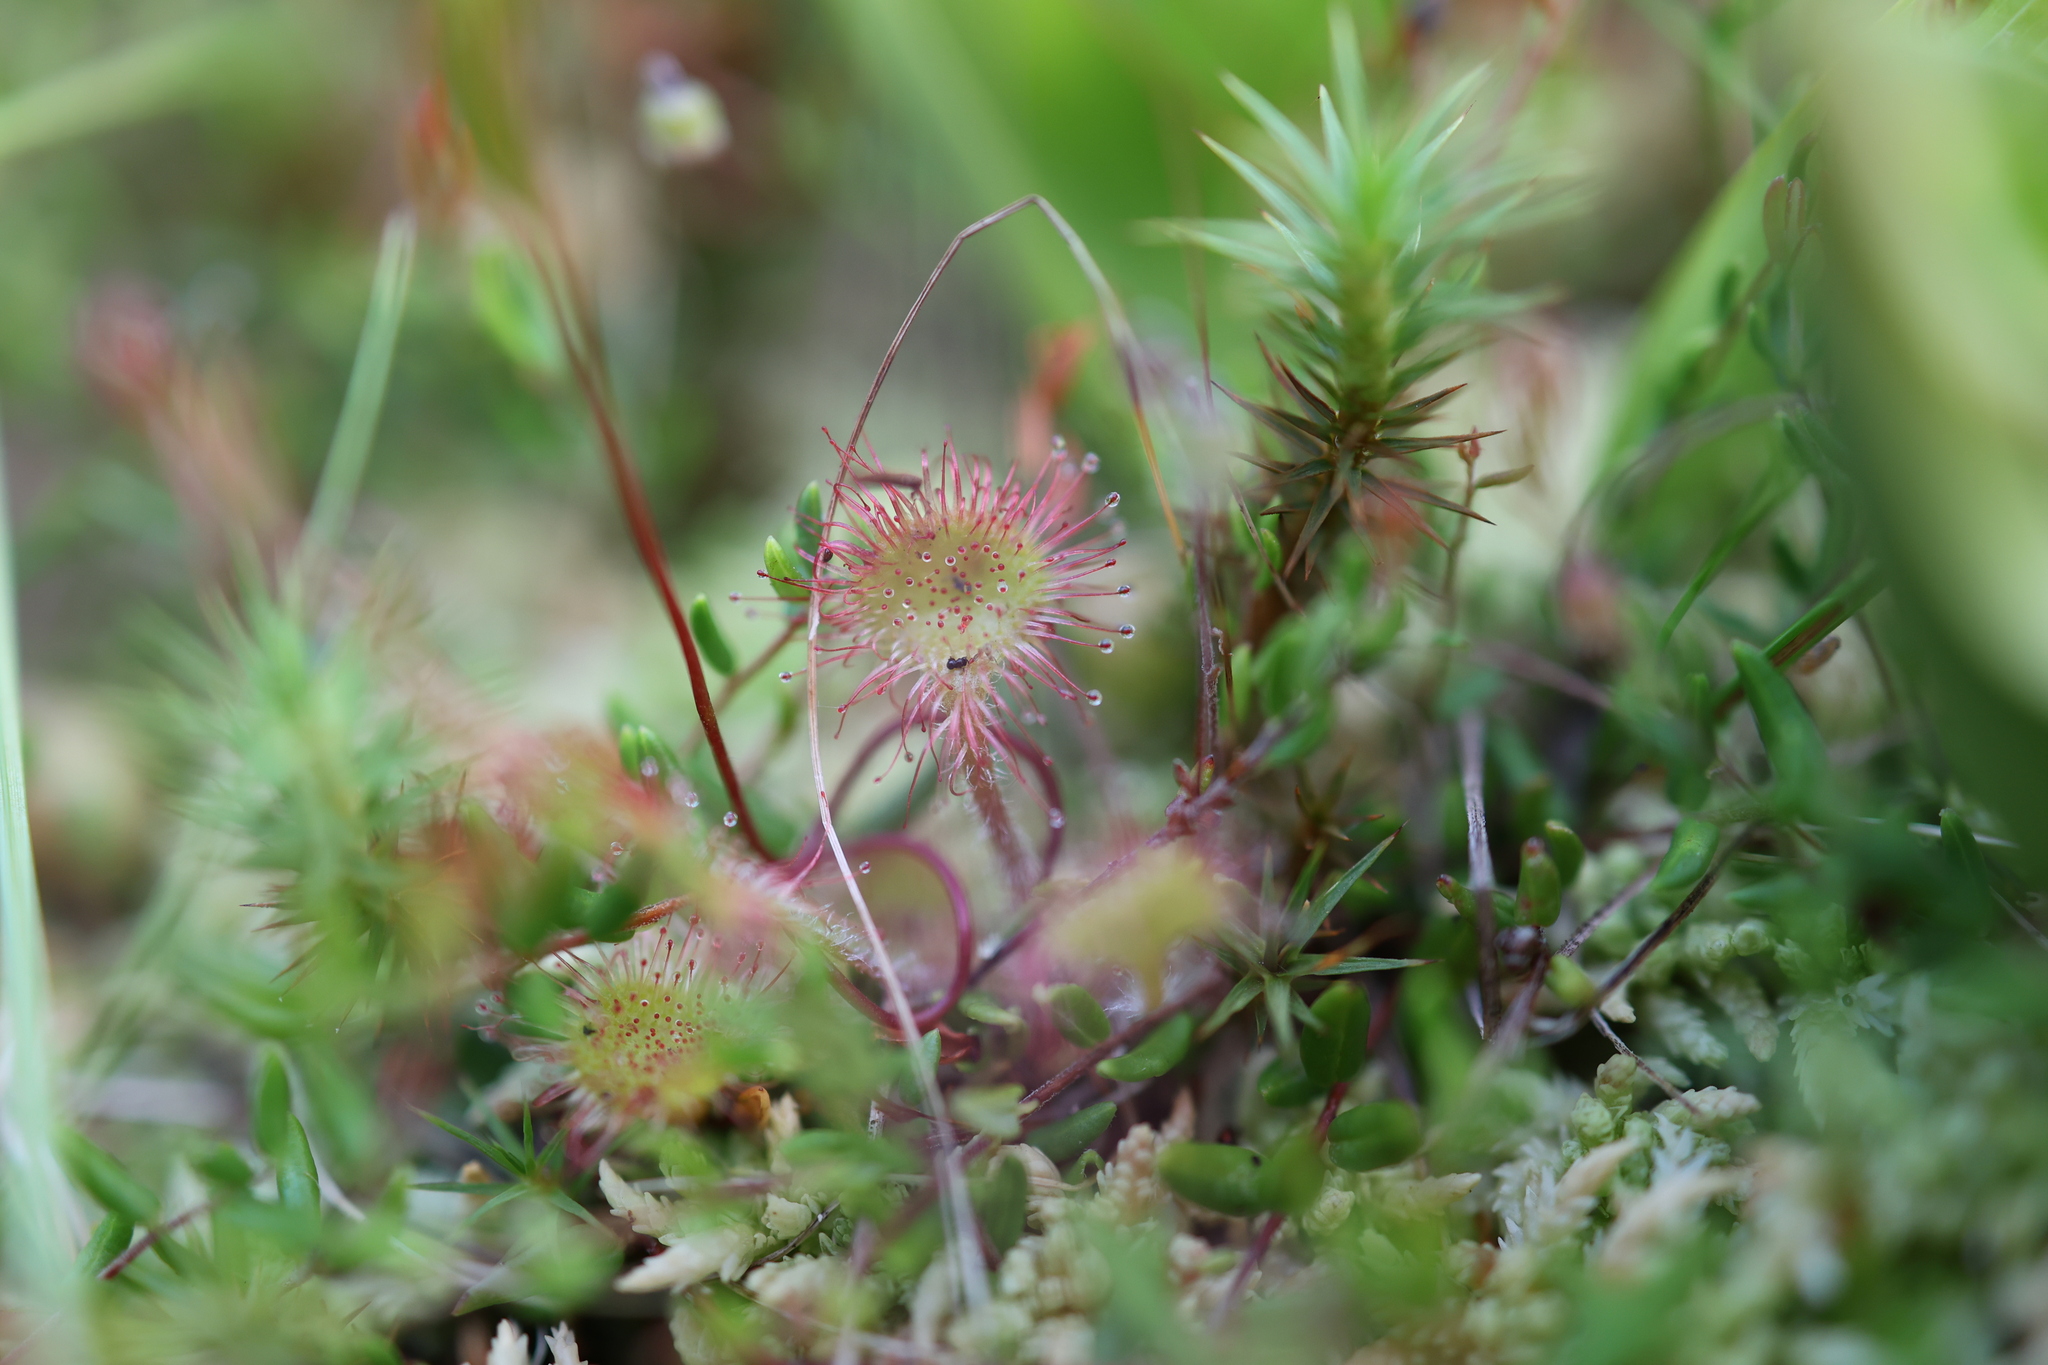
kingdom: Plantae
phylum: Tracheophyta
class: Magnoliopsida
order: Caryophyllales
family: Droseraceae
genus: Drosera
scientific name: Drosera rotundifolia
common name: Round-leaved sundew
